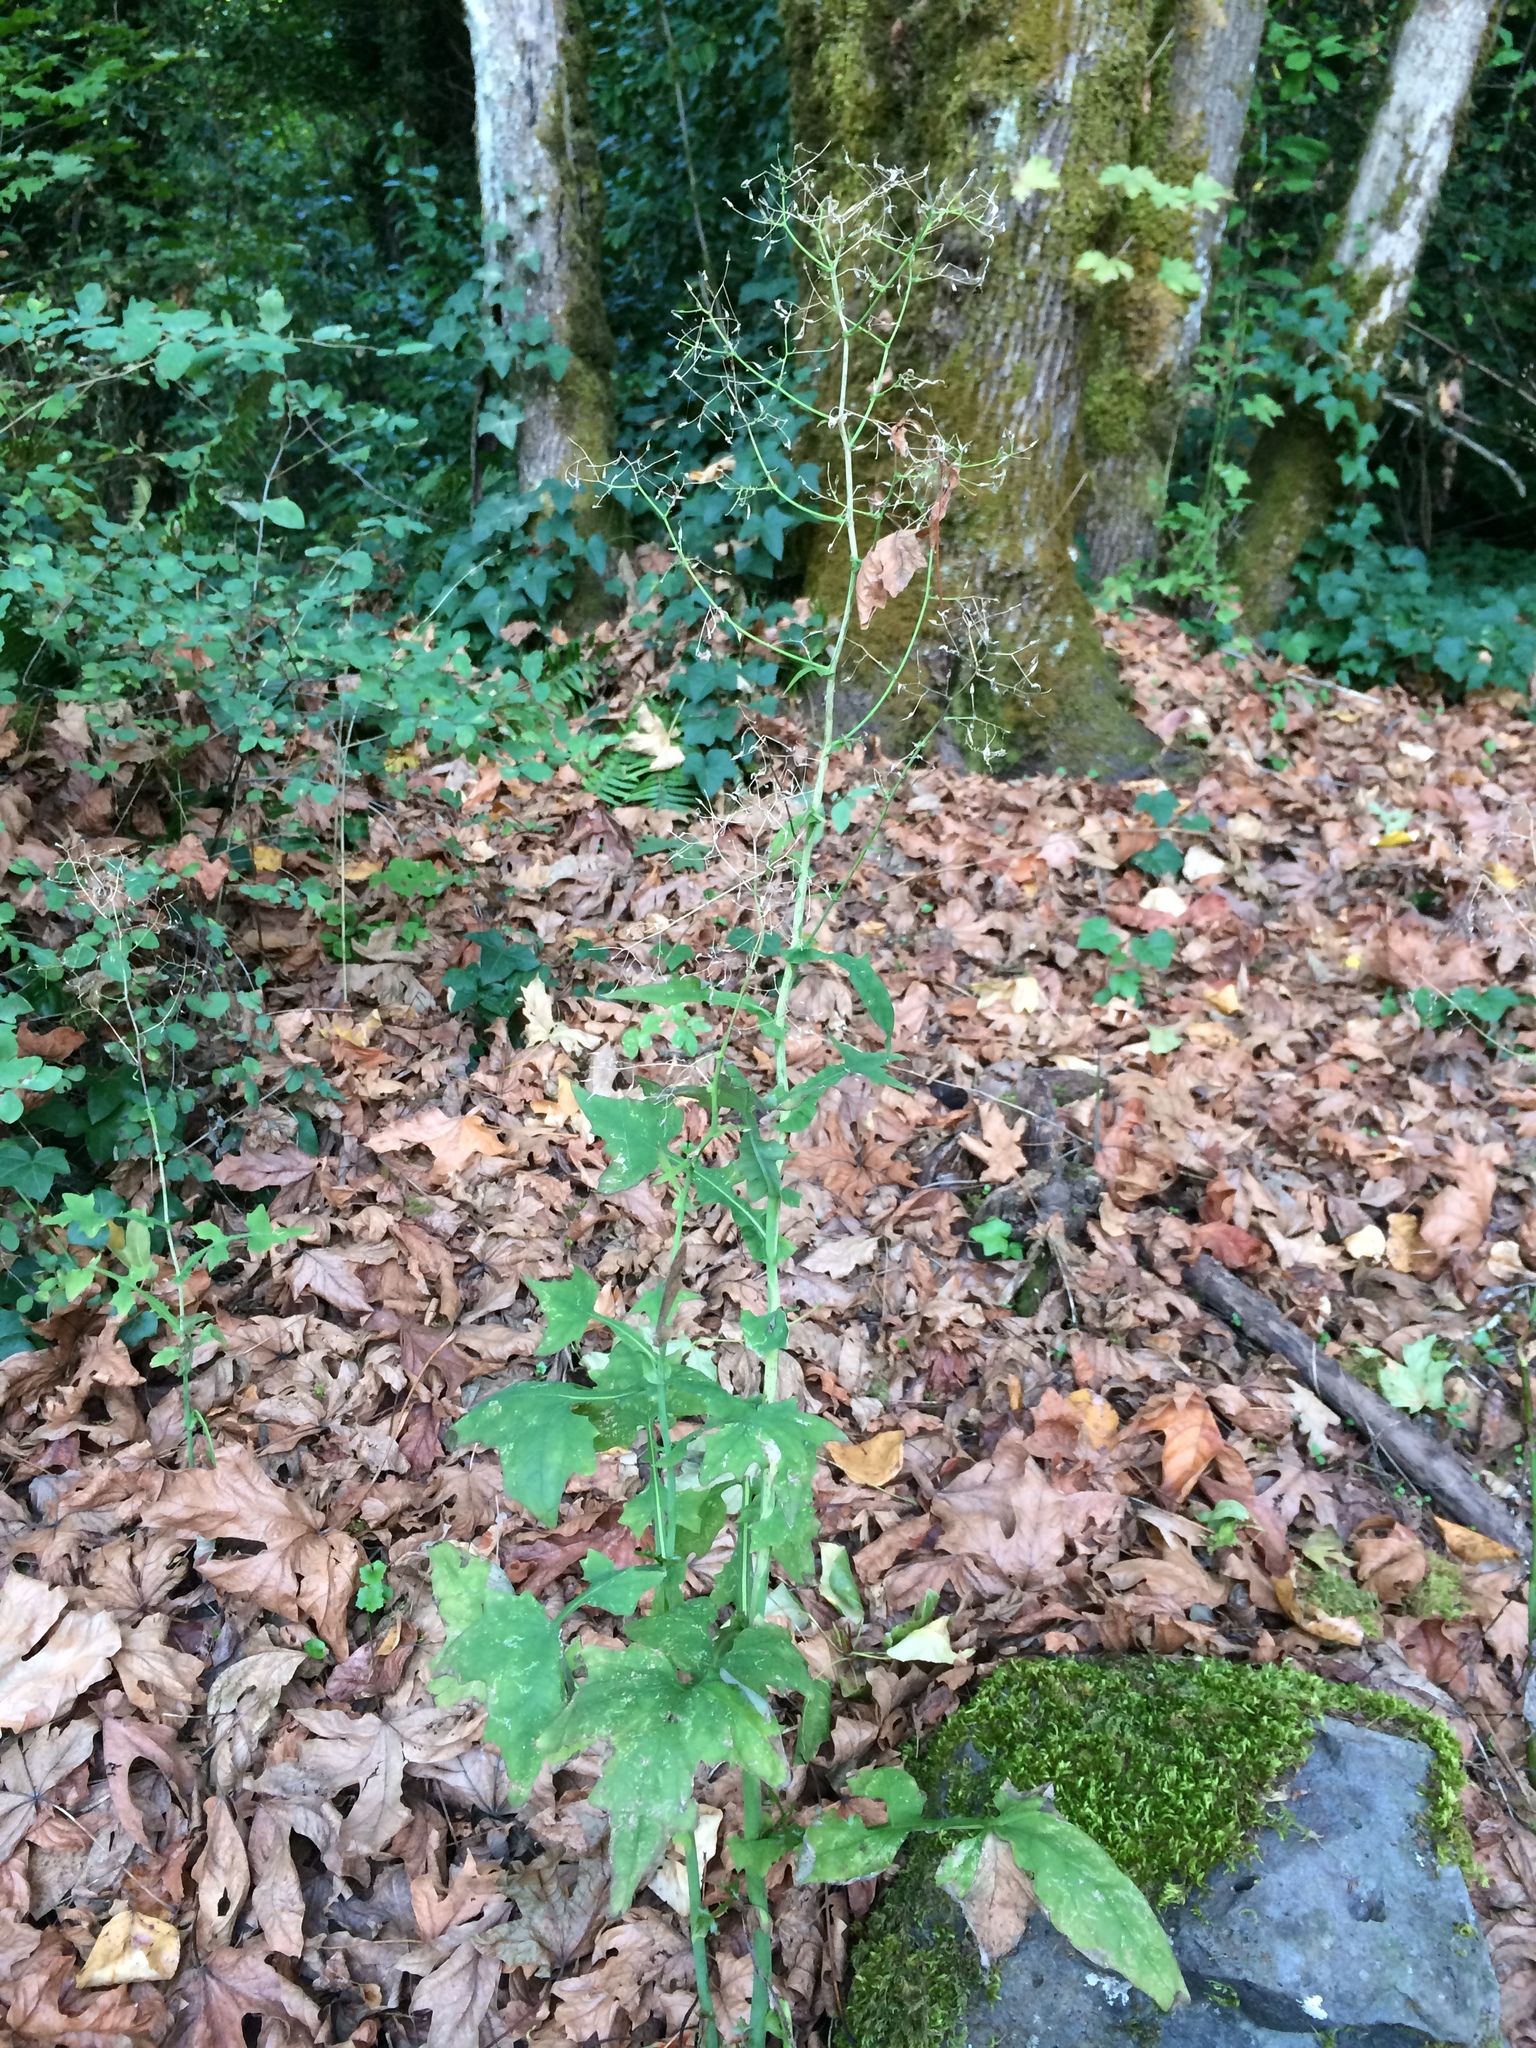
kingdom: Plantae
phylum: Tracheophyta
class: Magnoliopsida
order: Asterales
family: Asteraceae
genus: Mycelis
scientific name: Mycelis muralis
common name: Wall lettuce
